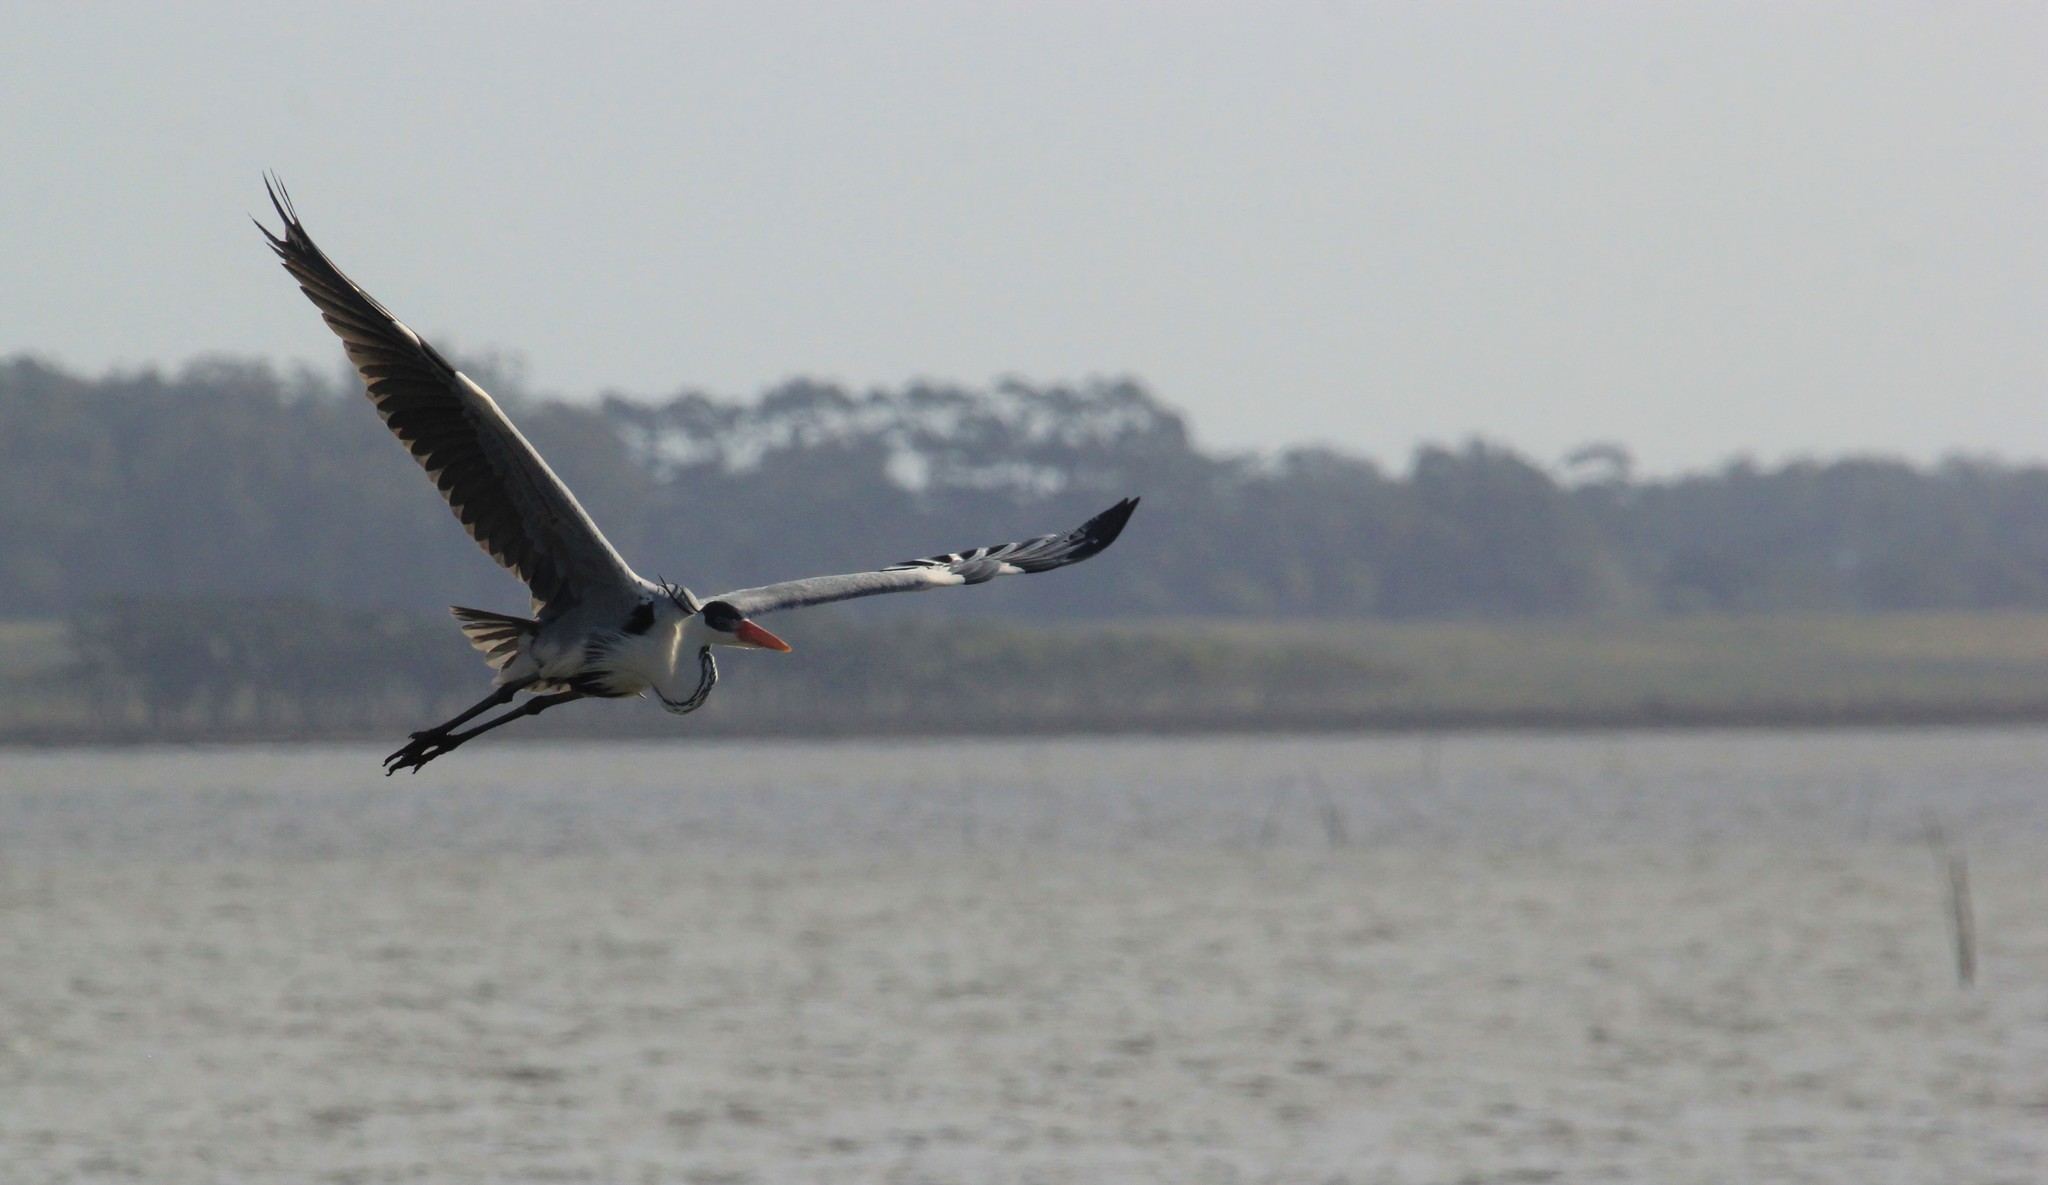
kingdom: Animalia
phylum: Chordata
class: Aves
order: Pelecaniformes
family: Ardeidae
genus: Ardea
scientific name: Ardea cocoi
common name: Cocoi heron
